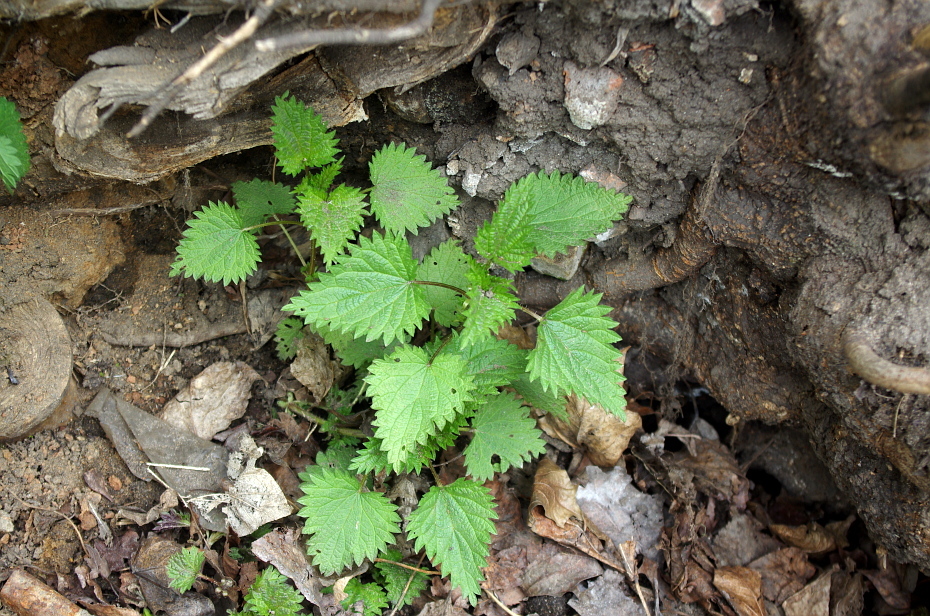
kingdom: Plantae
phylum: Tracheophyta
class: Magnoliopsida
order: Rosales
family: Urticaceae
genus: Urtica
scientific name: Urtica dioica
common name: Common nettle
